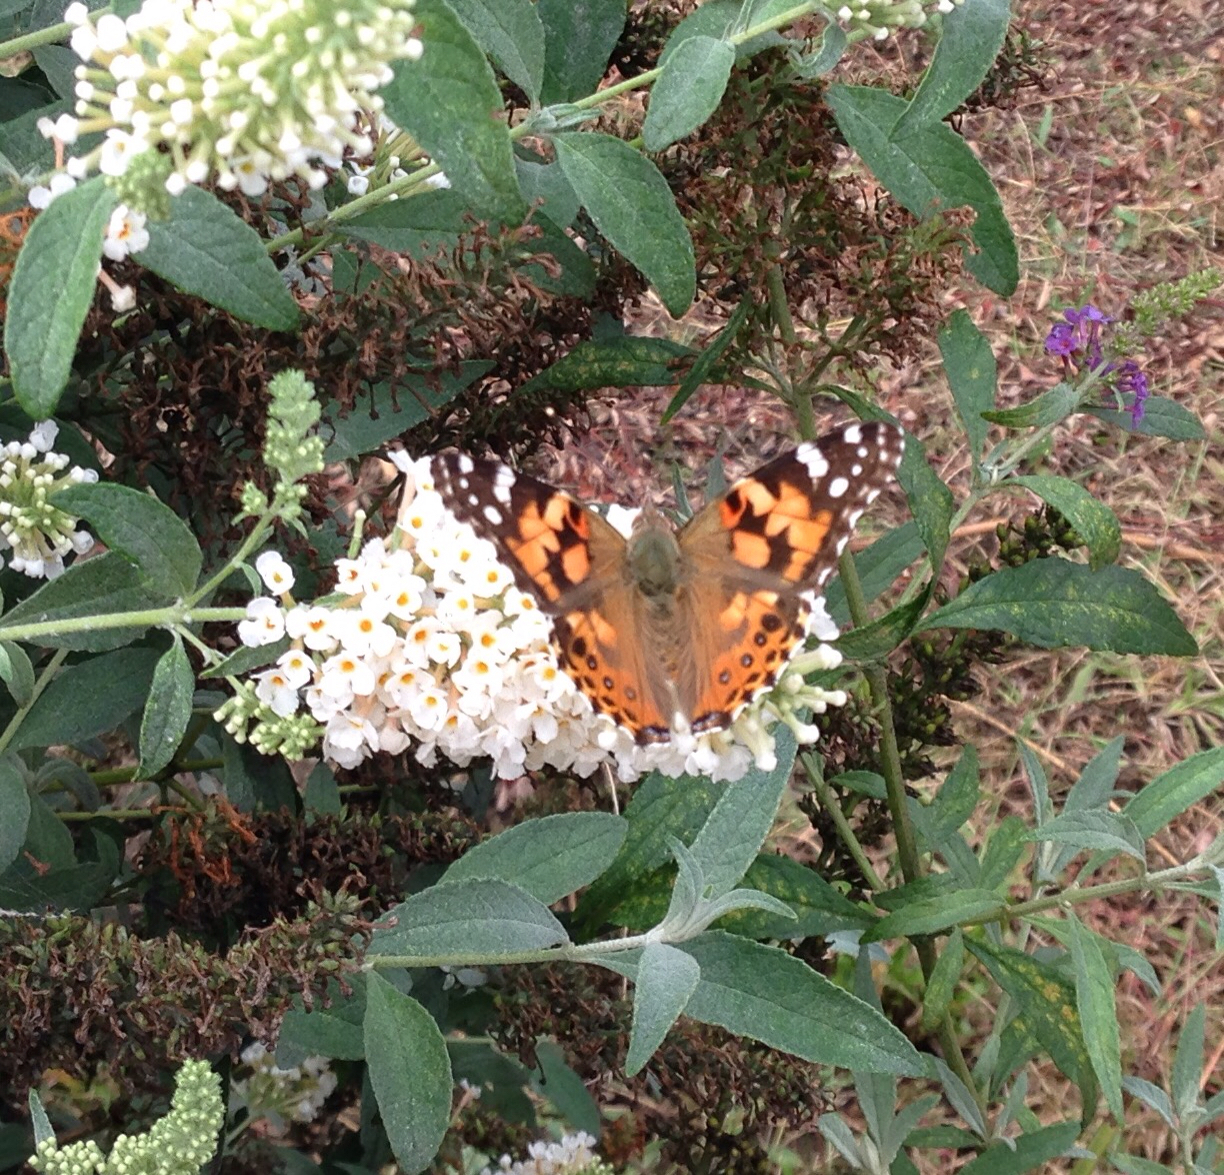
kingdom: Animalia
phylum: Arthropoda
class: Insecta
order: Lepidoptera
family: Nymphalidae
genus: Vanessa
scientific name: Vanessa cardui
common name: Painted lady
